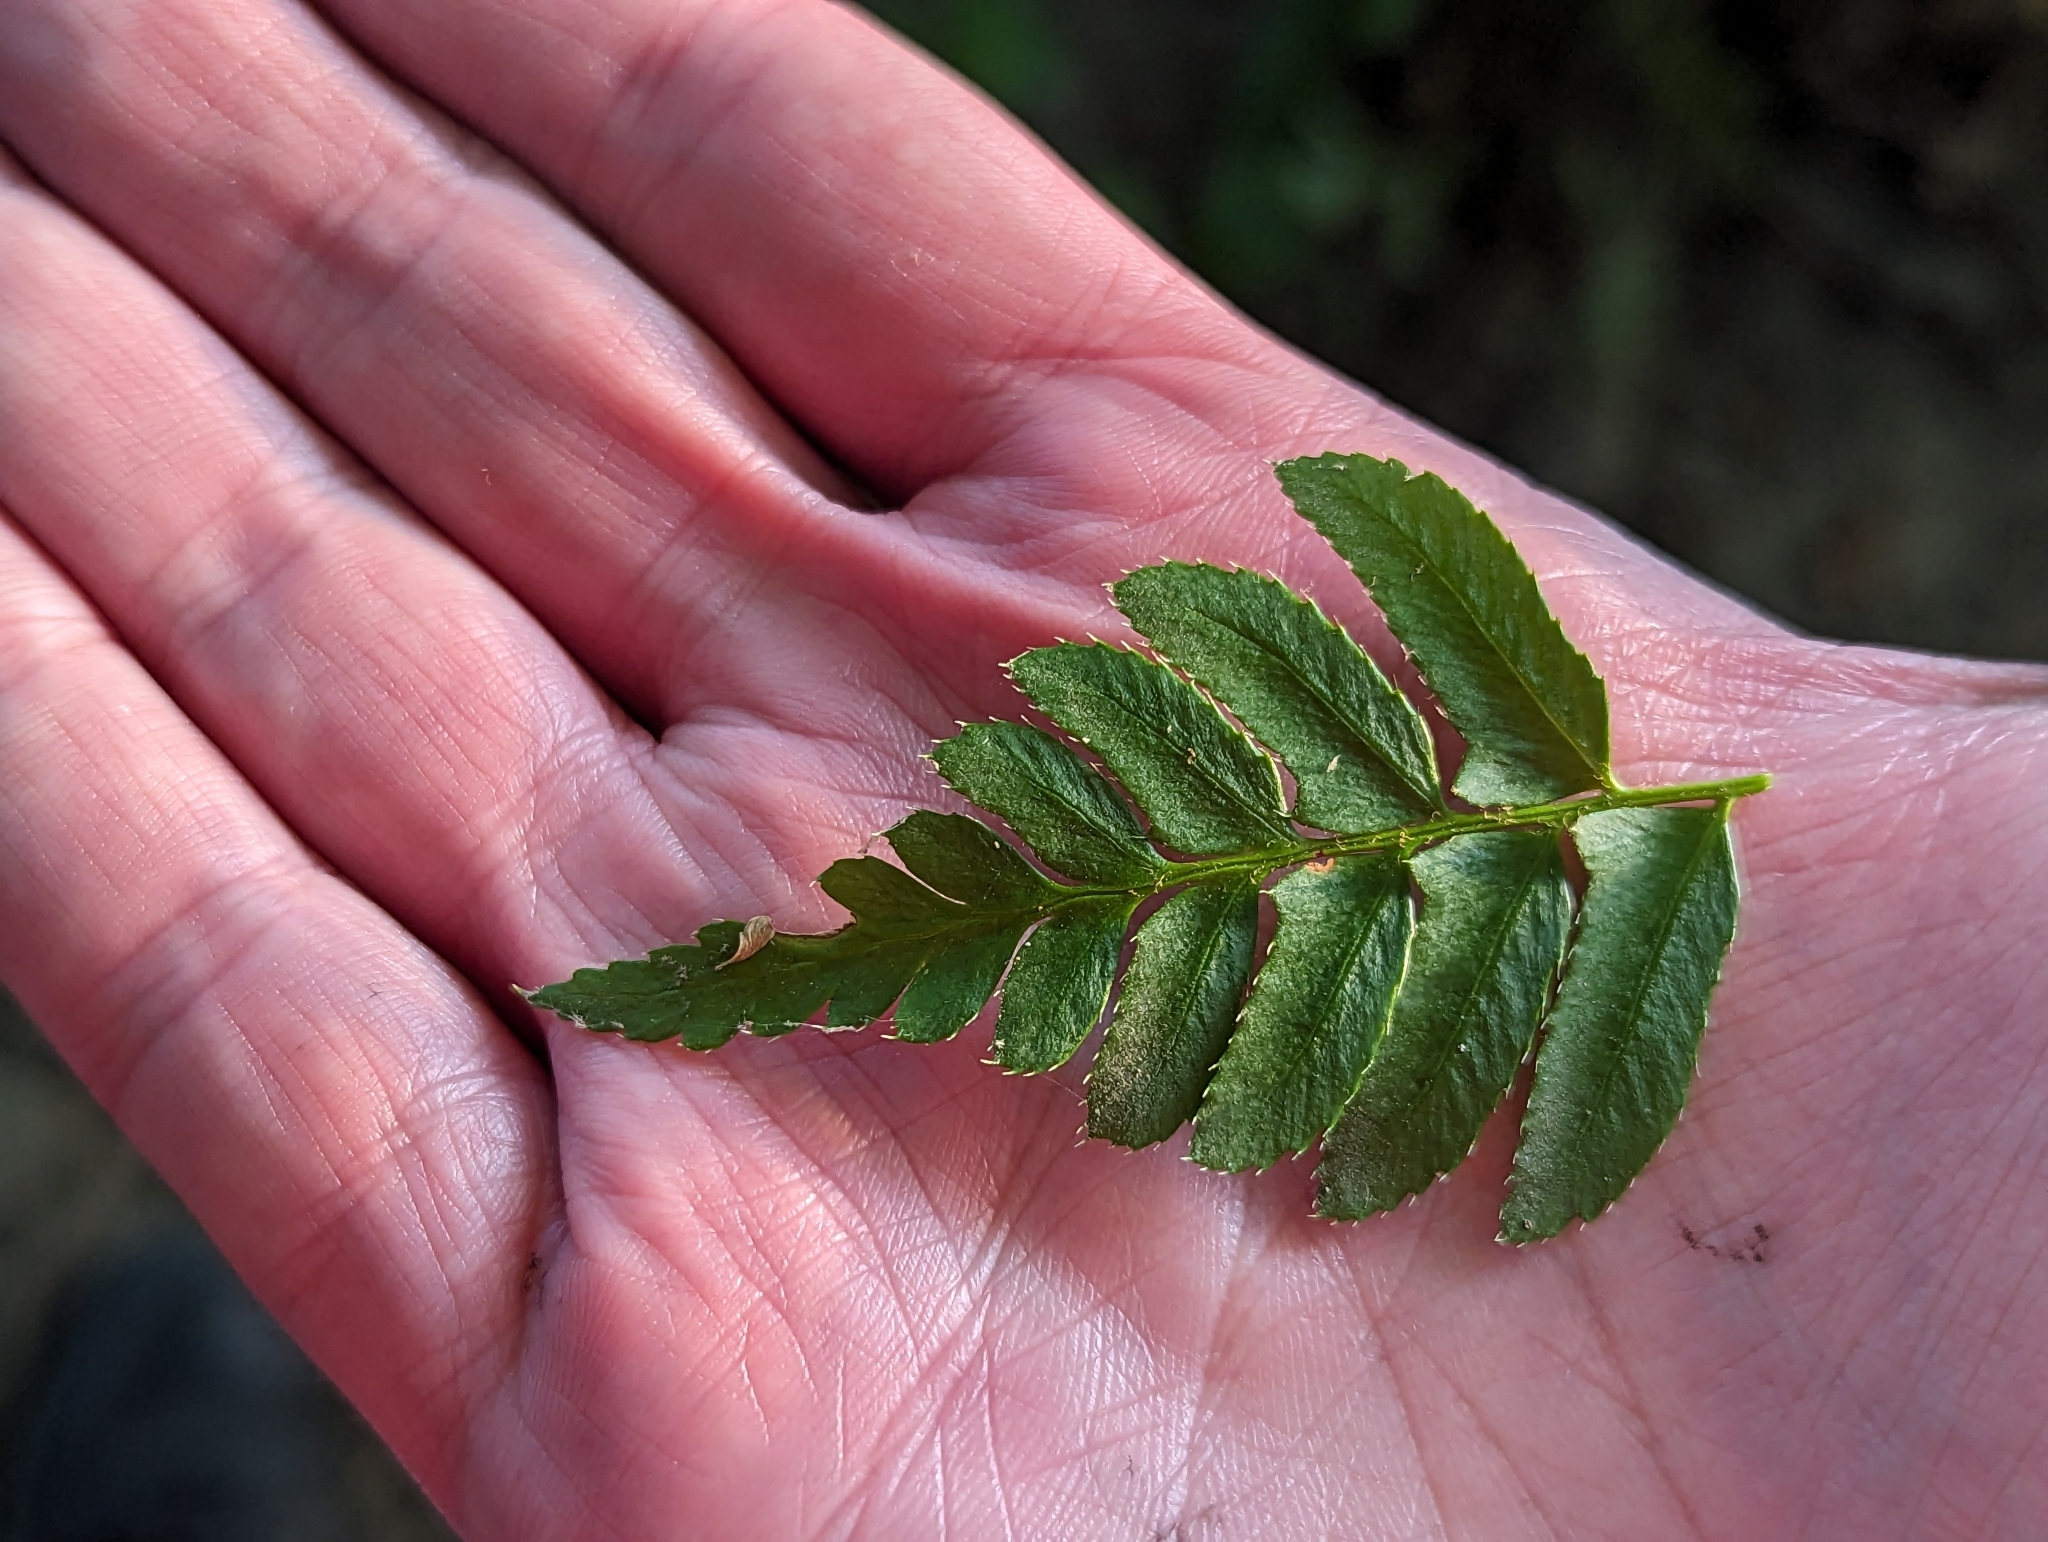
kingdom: Plantae
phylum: Tracheophyta
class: Polypodiopsida
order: Polypodiales
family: Dryopteridaceae
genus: Polystichum
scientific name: Polystichum acrostichoides
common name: Christmas fern
